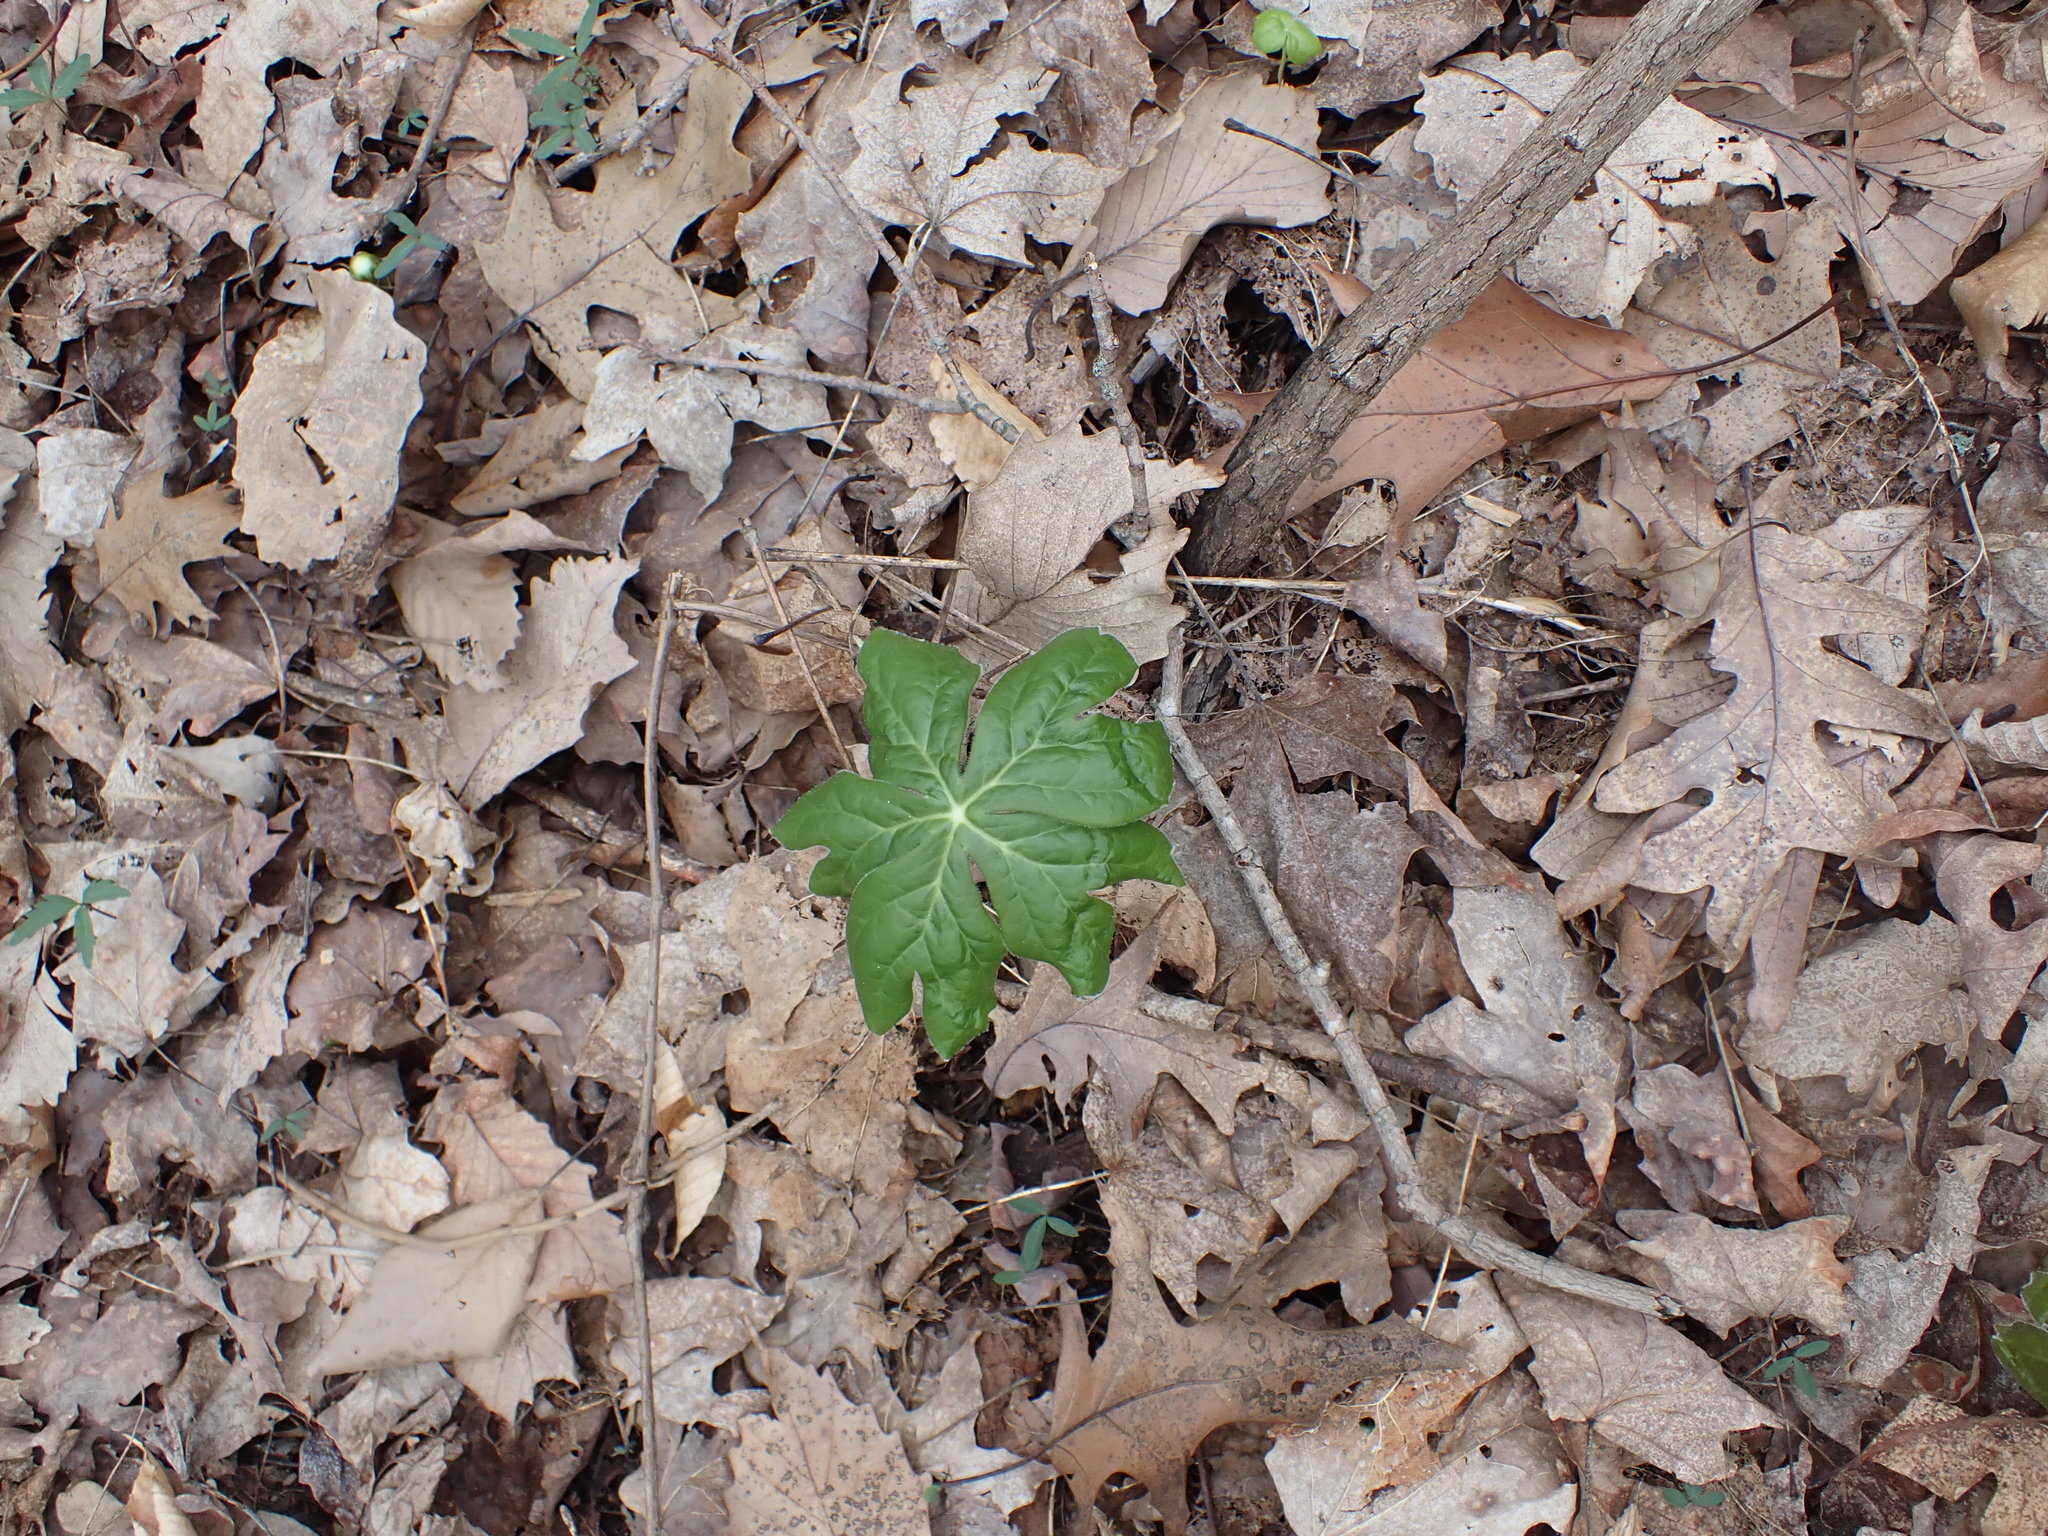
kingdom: Plantae
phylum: Tracheophyta
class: Magnoliopsida
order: Ranunculales
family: Berberidaceae
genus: Podophyllum
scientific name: Podophyllum peltatum
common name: Wild mandrake
